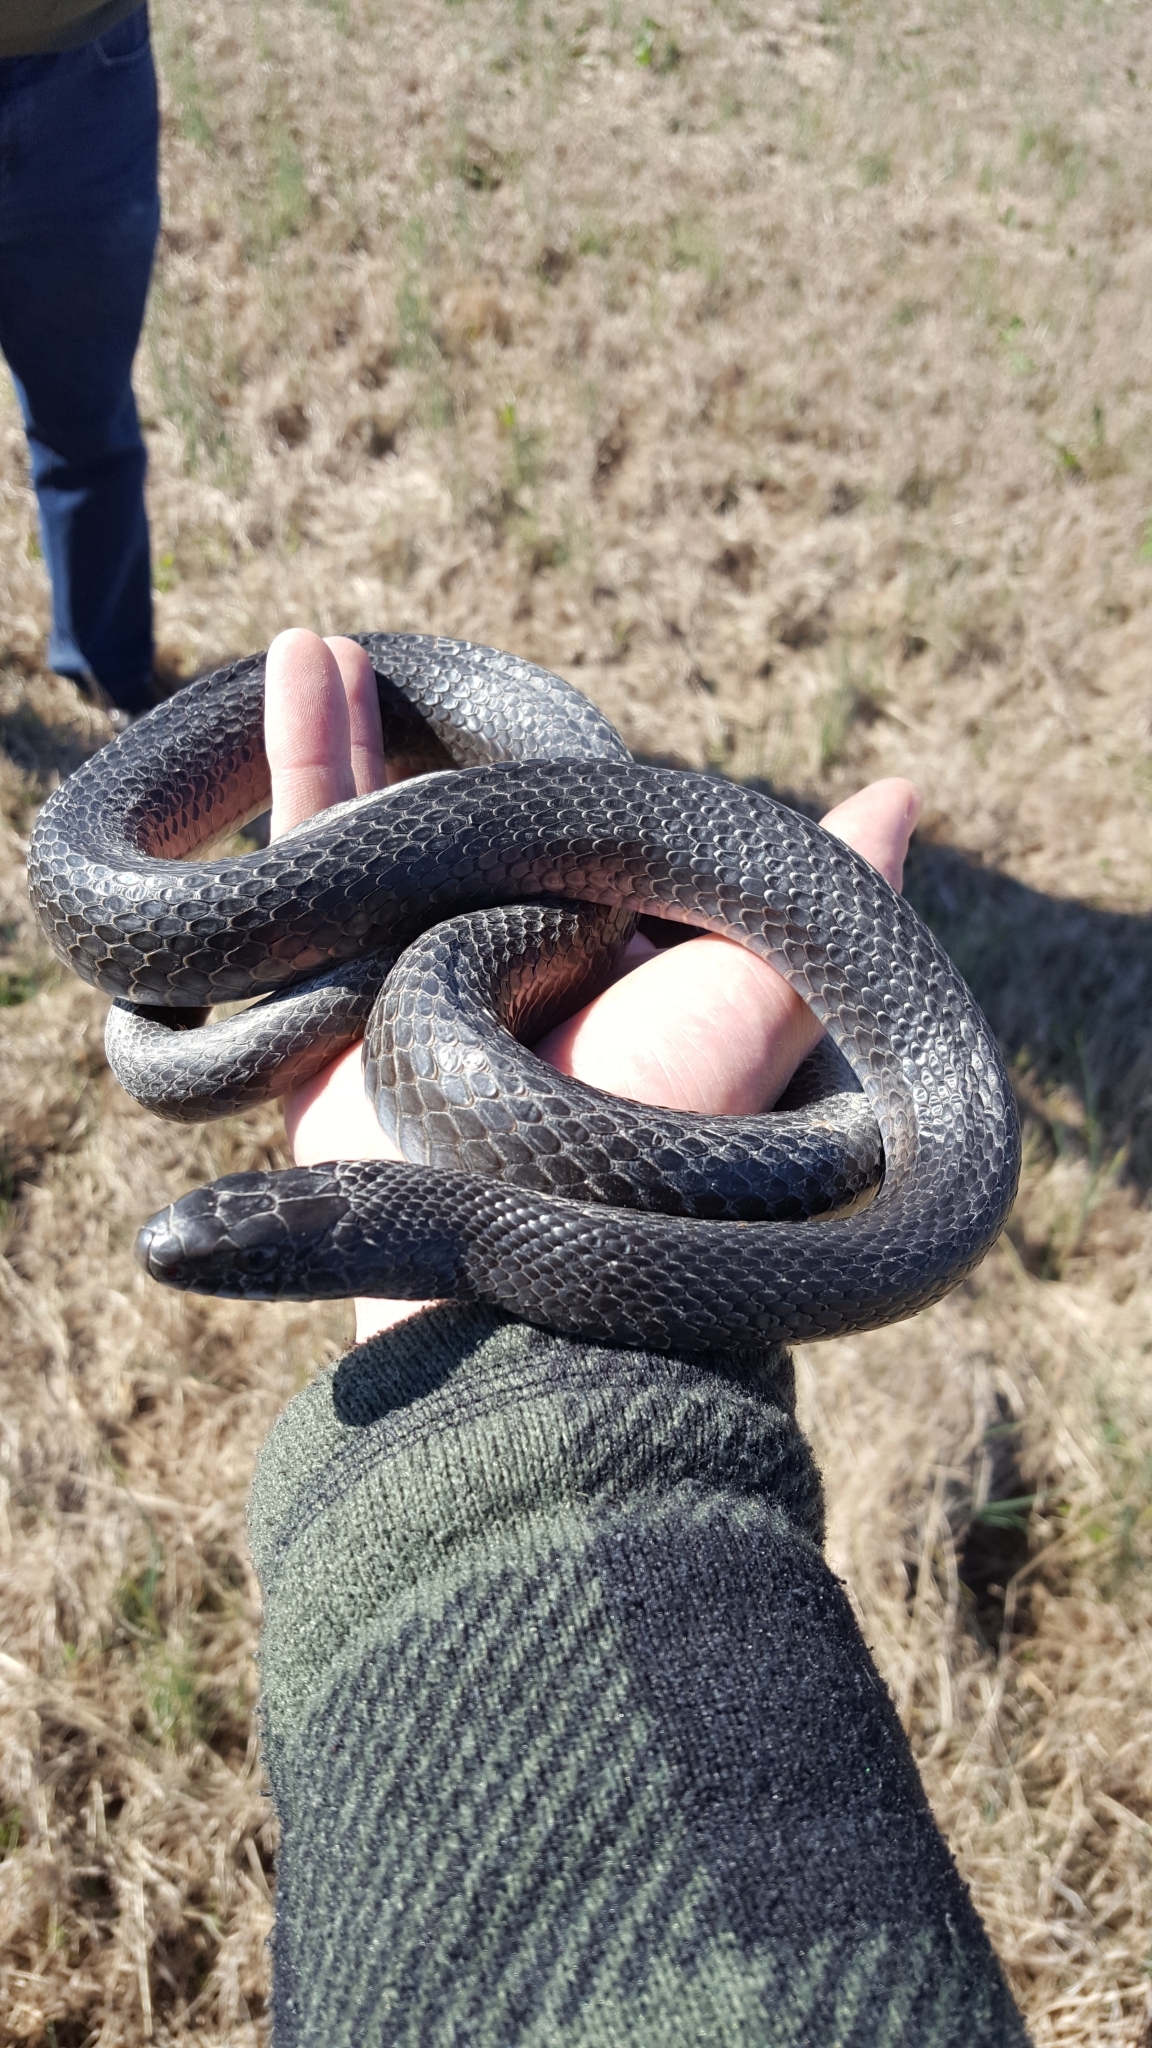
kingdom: Animalia
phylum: Chordata
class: Squamata
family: Colubridae
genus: Coluber
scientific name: Coluber constrictor
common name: Eastern racer
